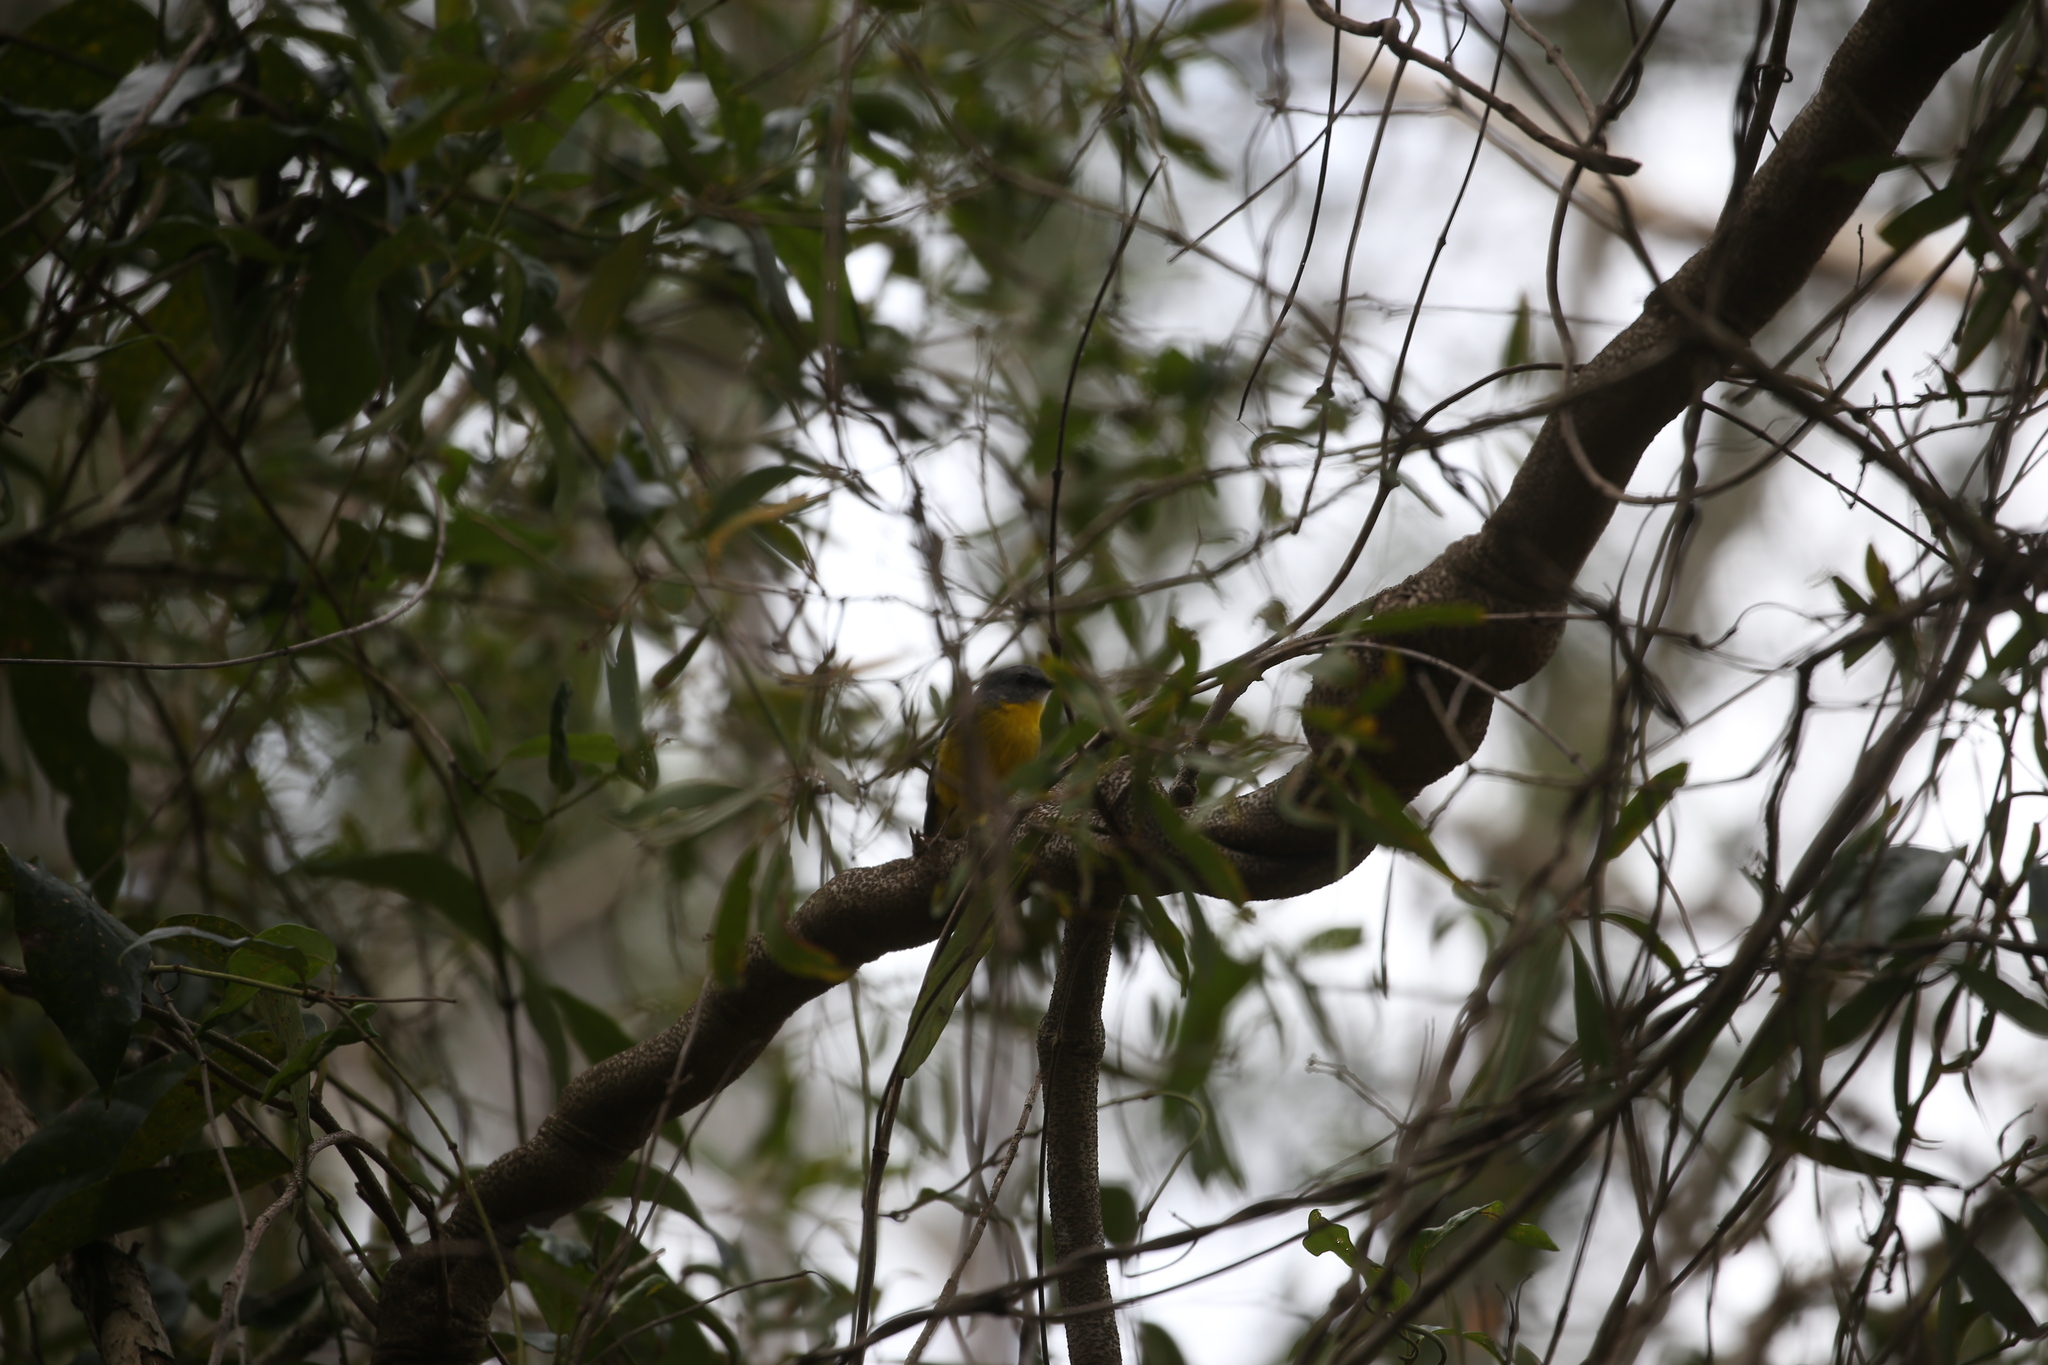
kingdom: Animalia
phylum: Chordata
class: Aves
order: Passeriformes
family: Petroicidae
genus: Eopsaltria
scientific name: Eopsaltria australis
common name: Eastern yellow robin
